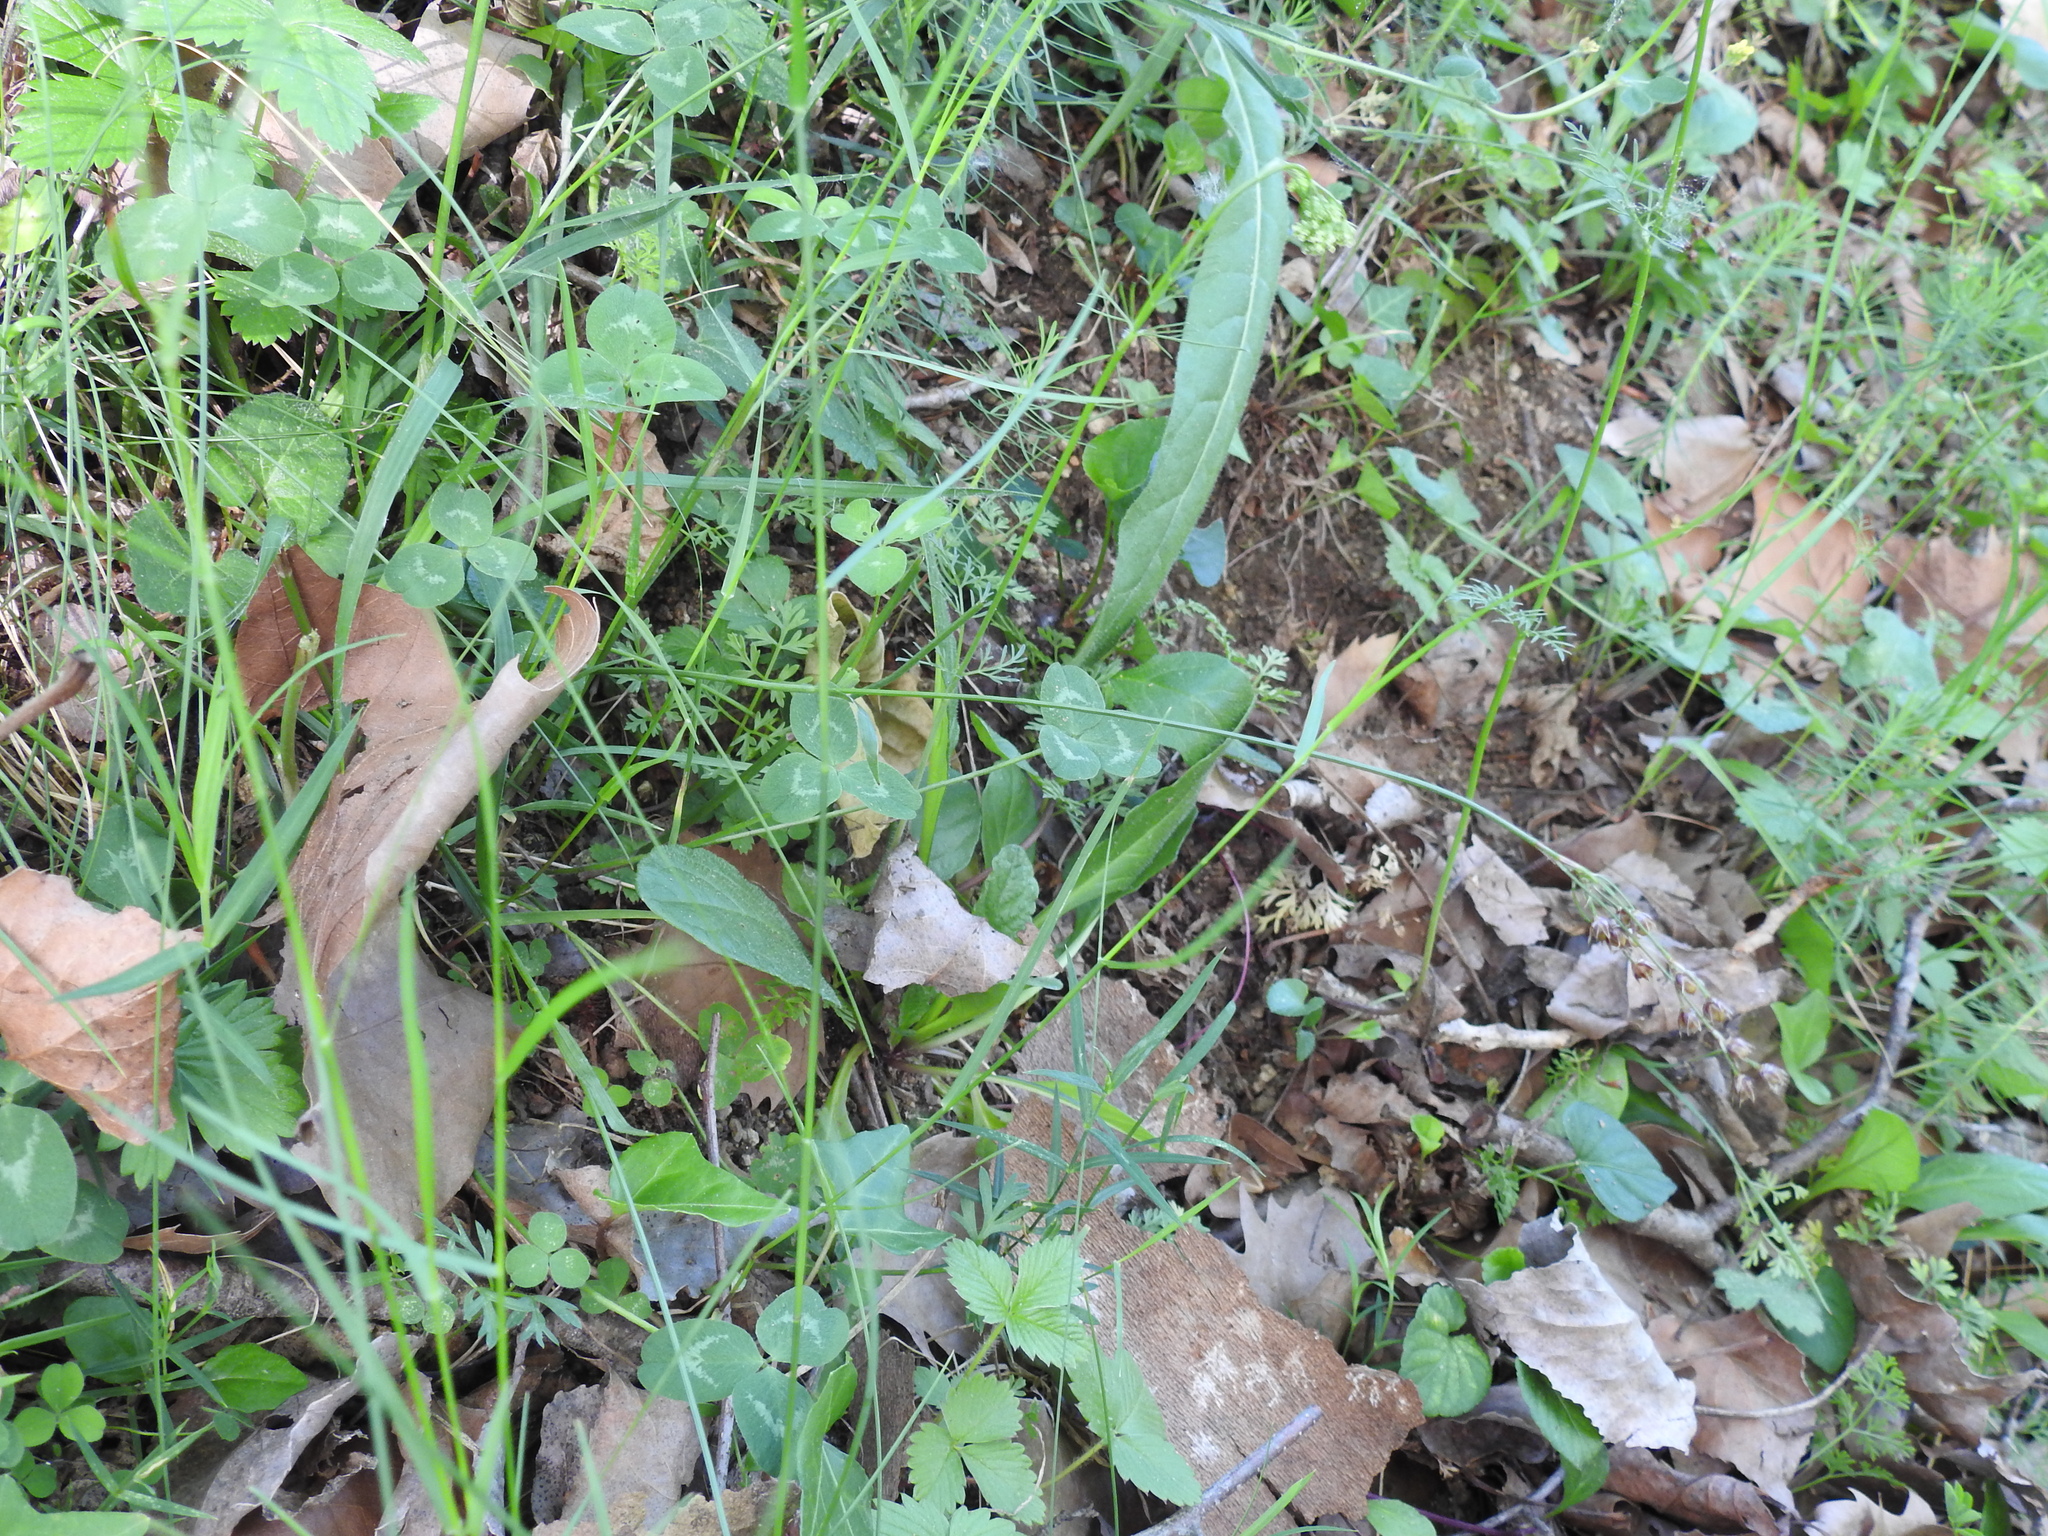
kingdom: Plantae
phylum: Tracheophyta
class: Liliopsida
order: Poales
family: Juncaceae
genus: Luzula
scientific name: Luzula forsteri
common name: Southern wood-rush
